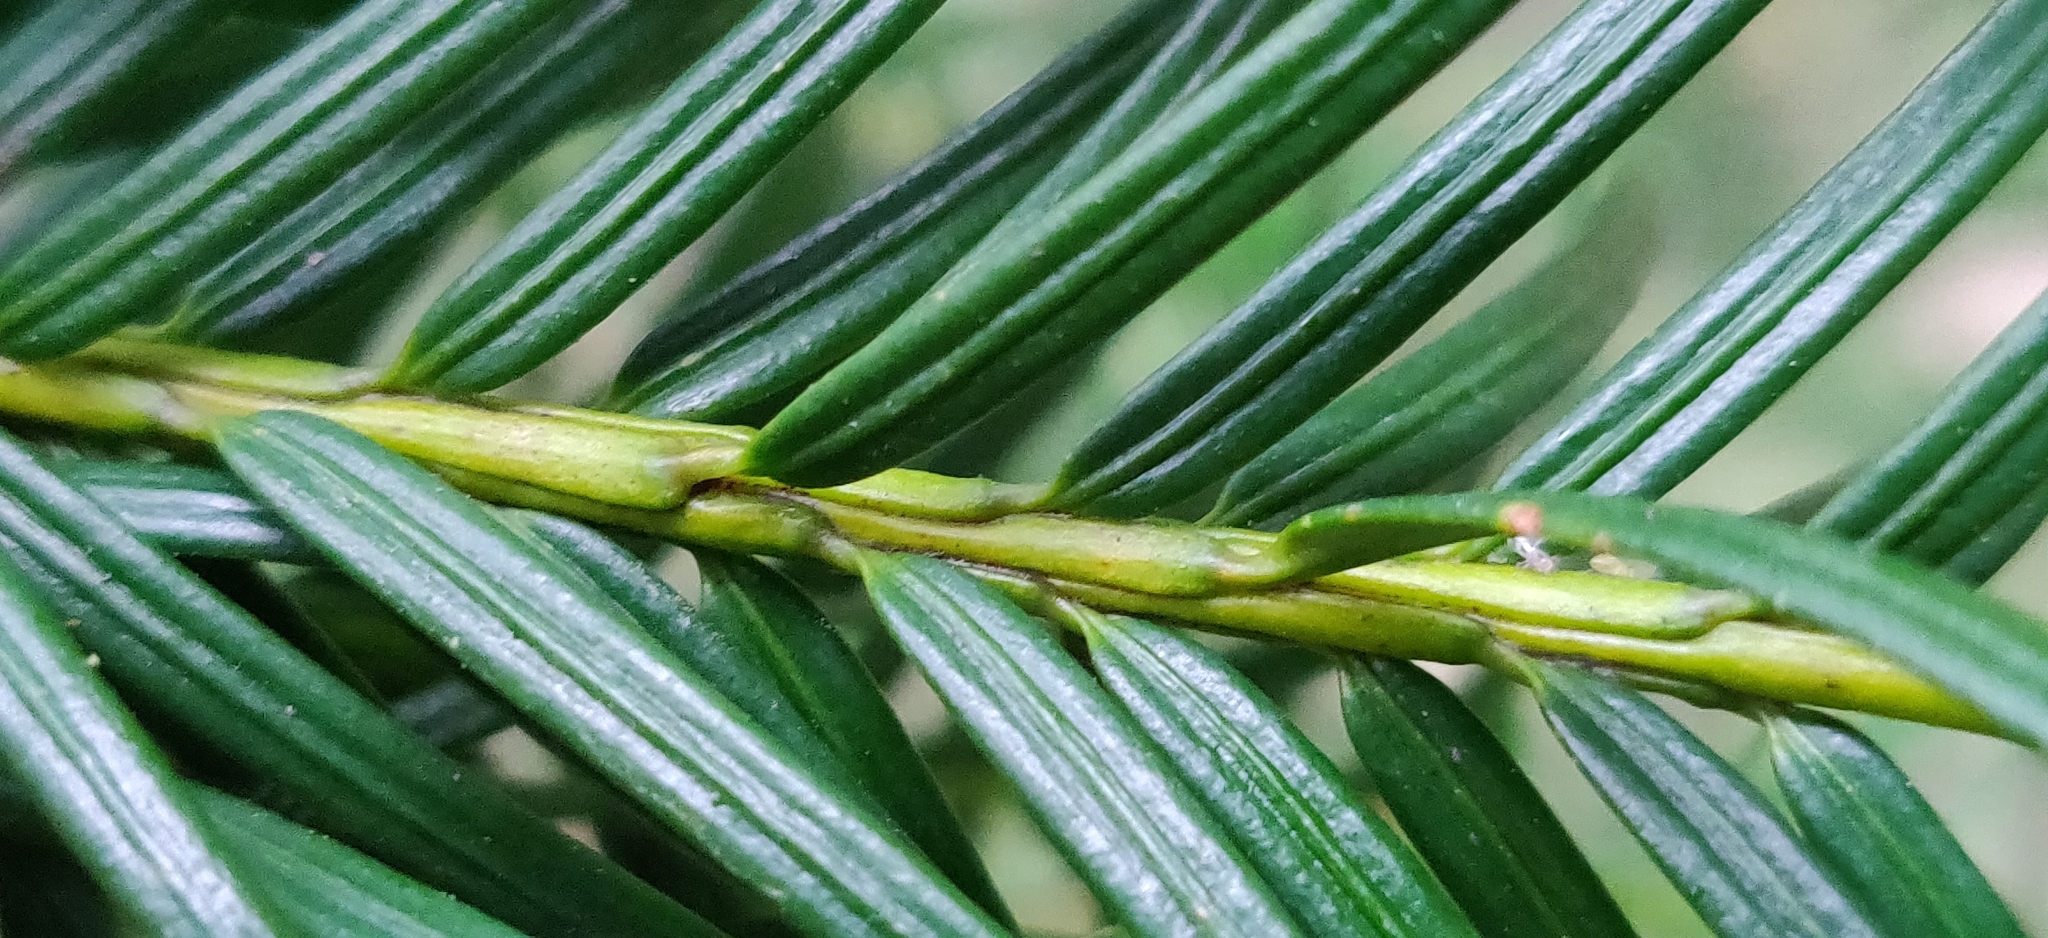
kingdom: Plantae
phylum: Tracheophyta
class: Pinopsida
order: Pinales
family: Taxaceae
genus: Taxus
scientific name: Taxus contorta
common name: West himalayan yew
